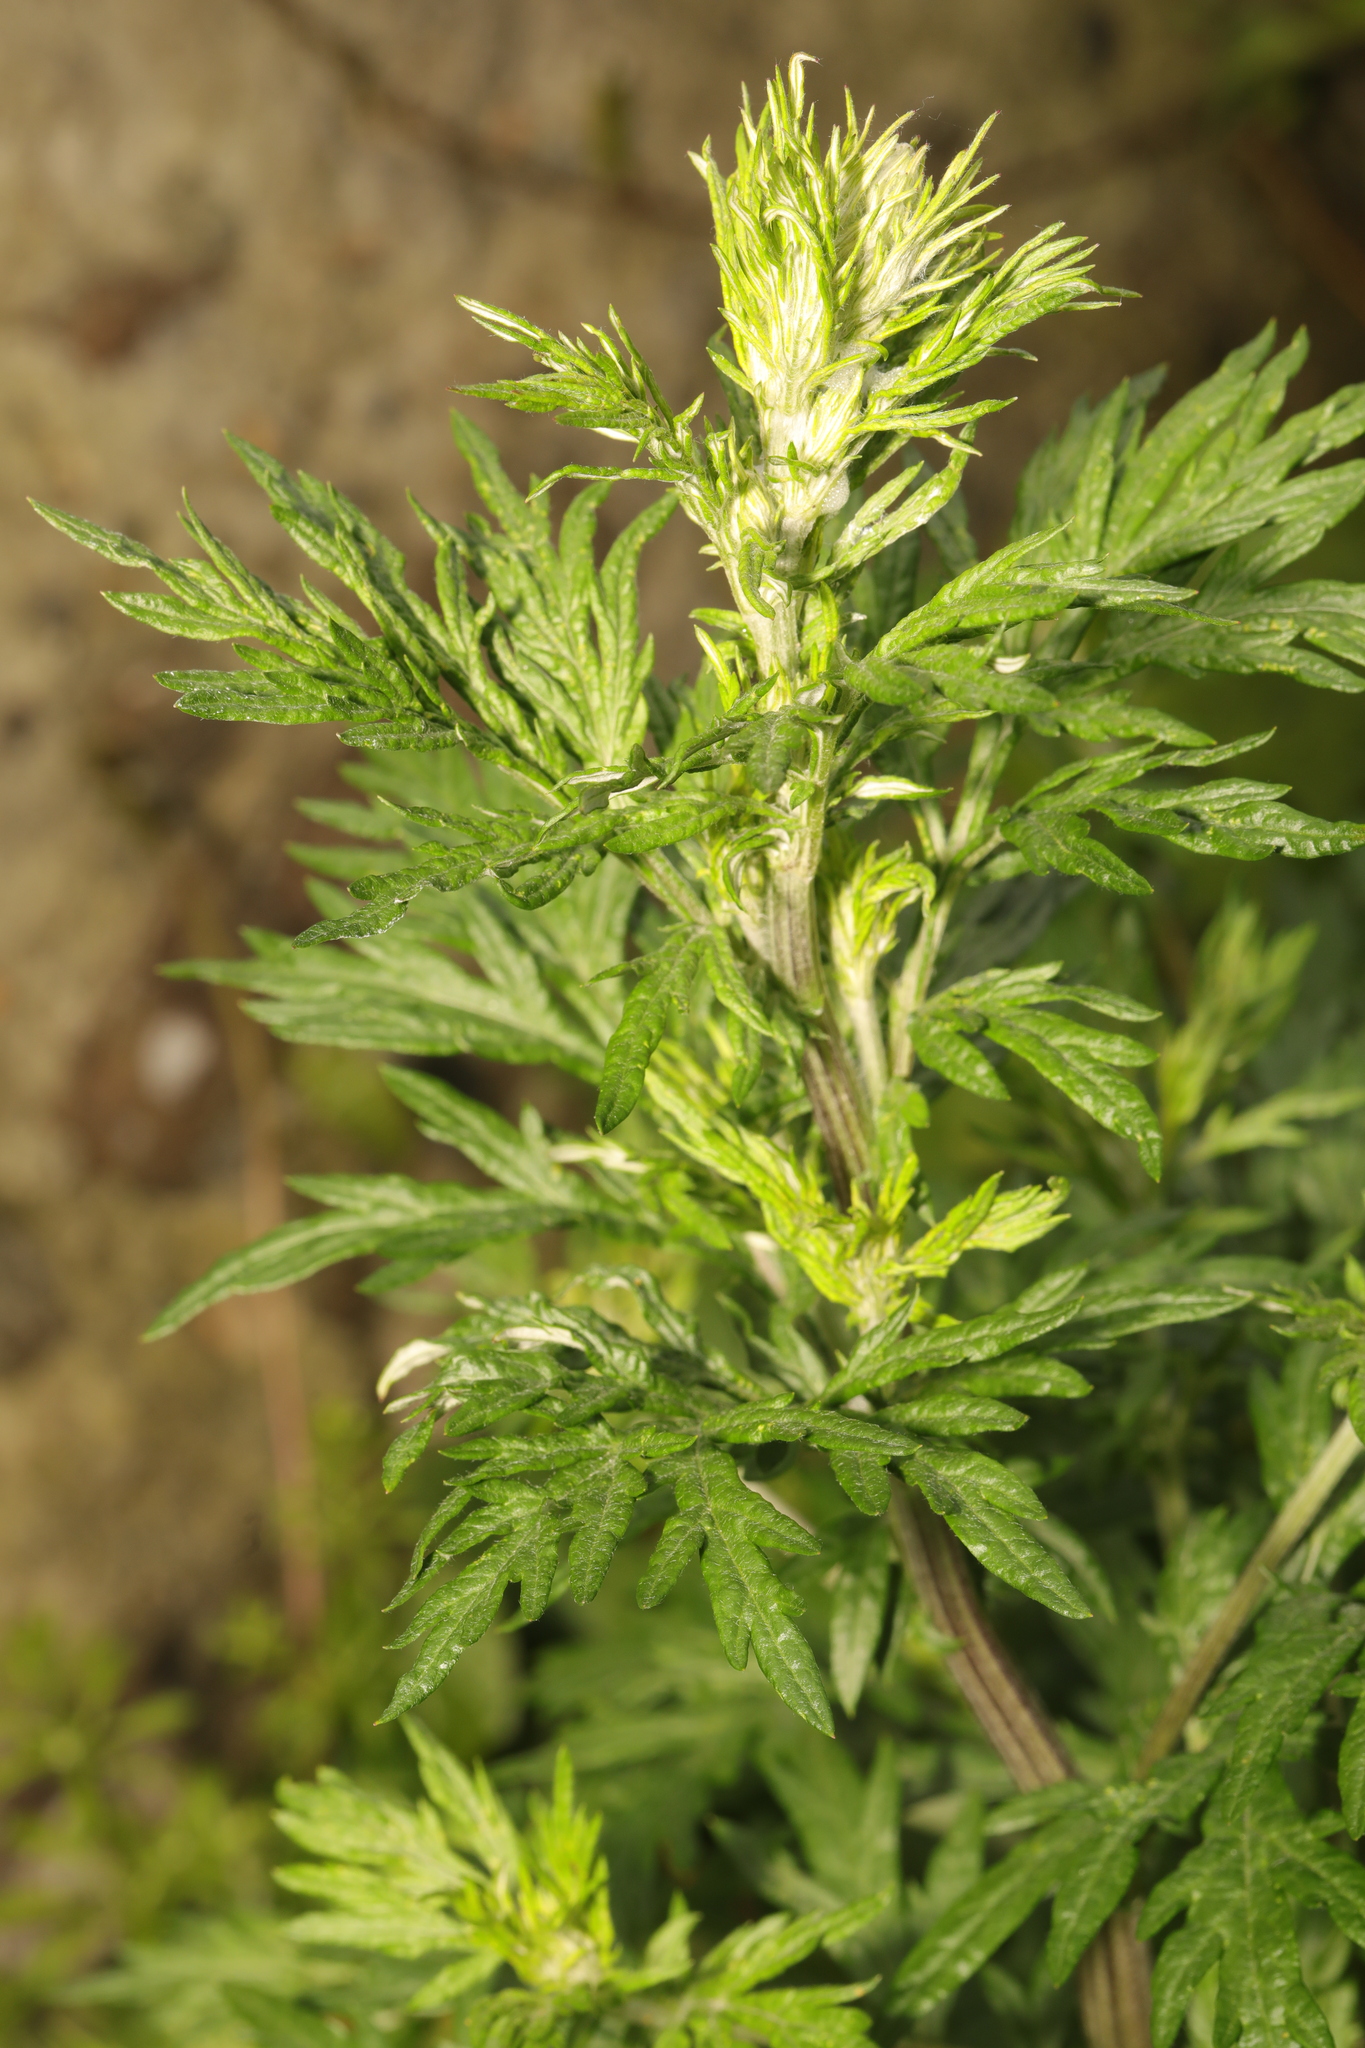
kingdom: Plantae
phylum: Tracheophyta
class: Magnoliopsida
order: Asterales
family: Asteraceae
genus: Artemisia
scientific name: Artemisia vulgaris
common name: Mugwort
